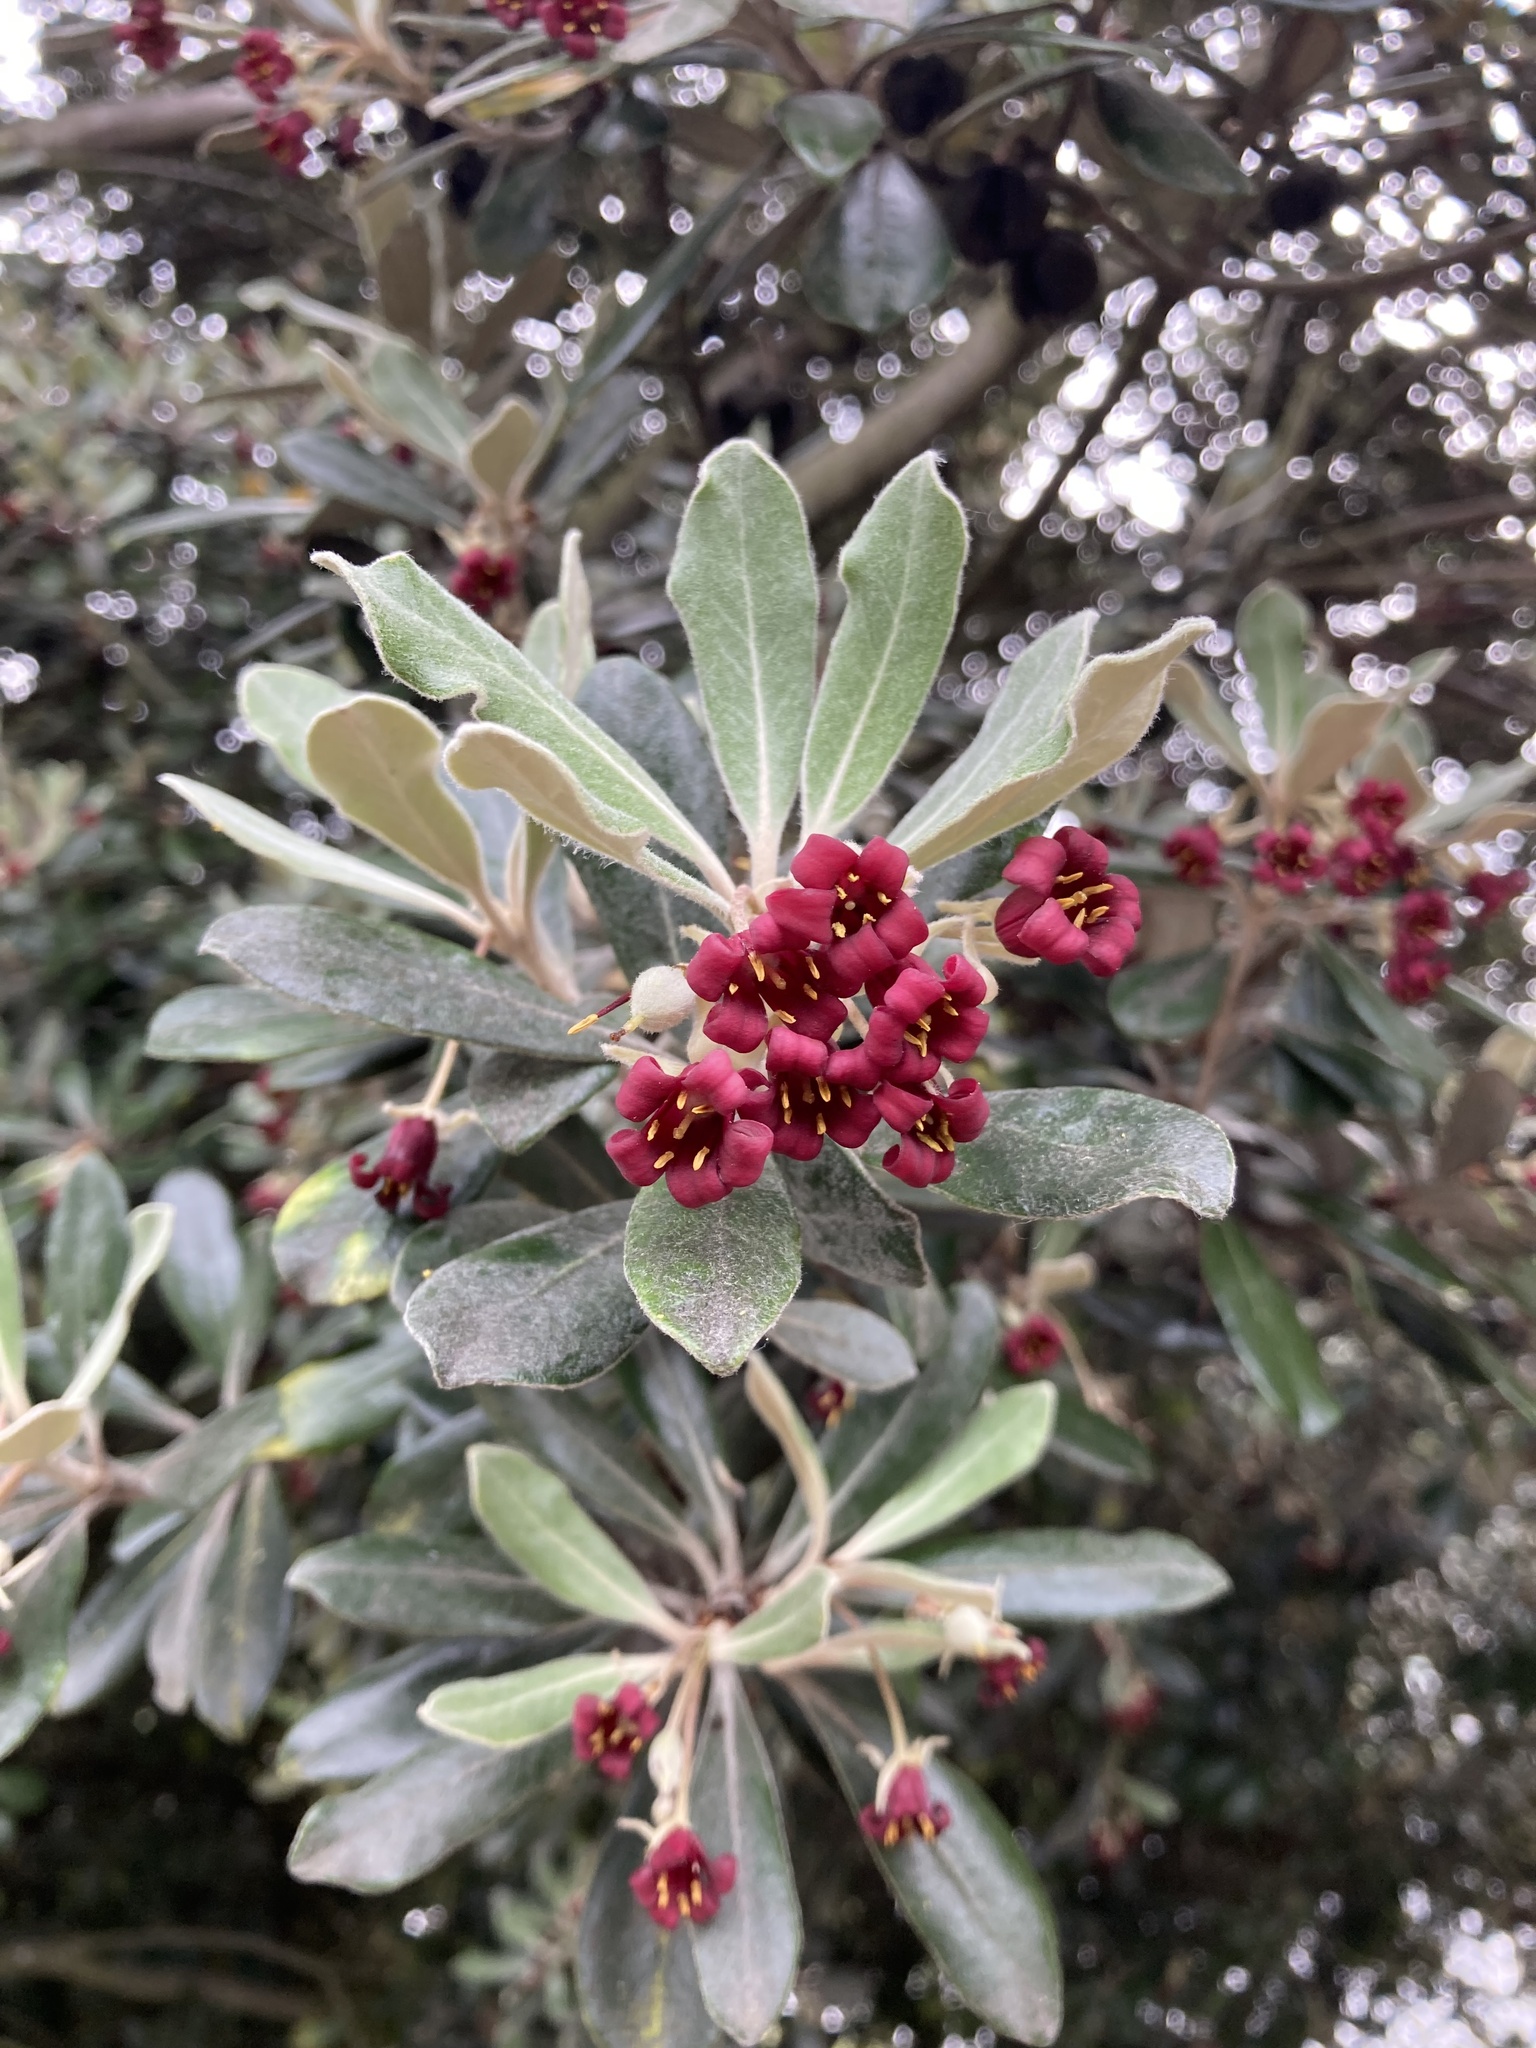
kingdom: Plantae
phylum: Tracheophyta
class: Magnoliopsida
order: Apiales
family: Pittosporaceae
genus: Pittosporum
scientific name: Pittosporum crassifolium
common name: Karo
